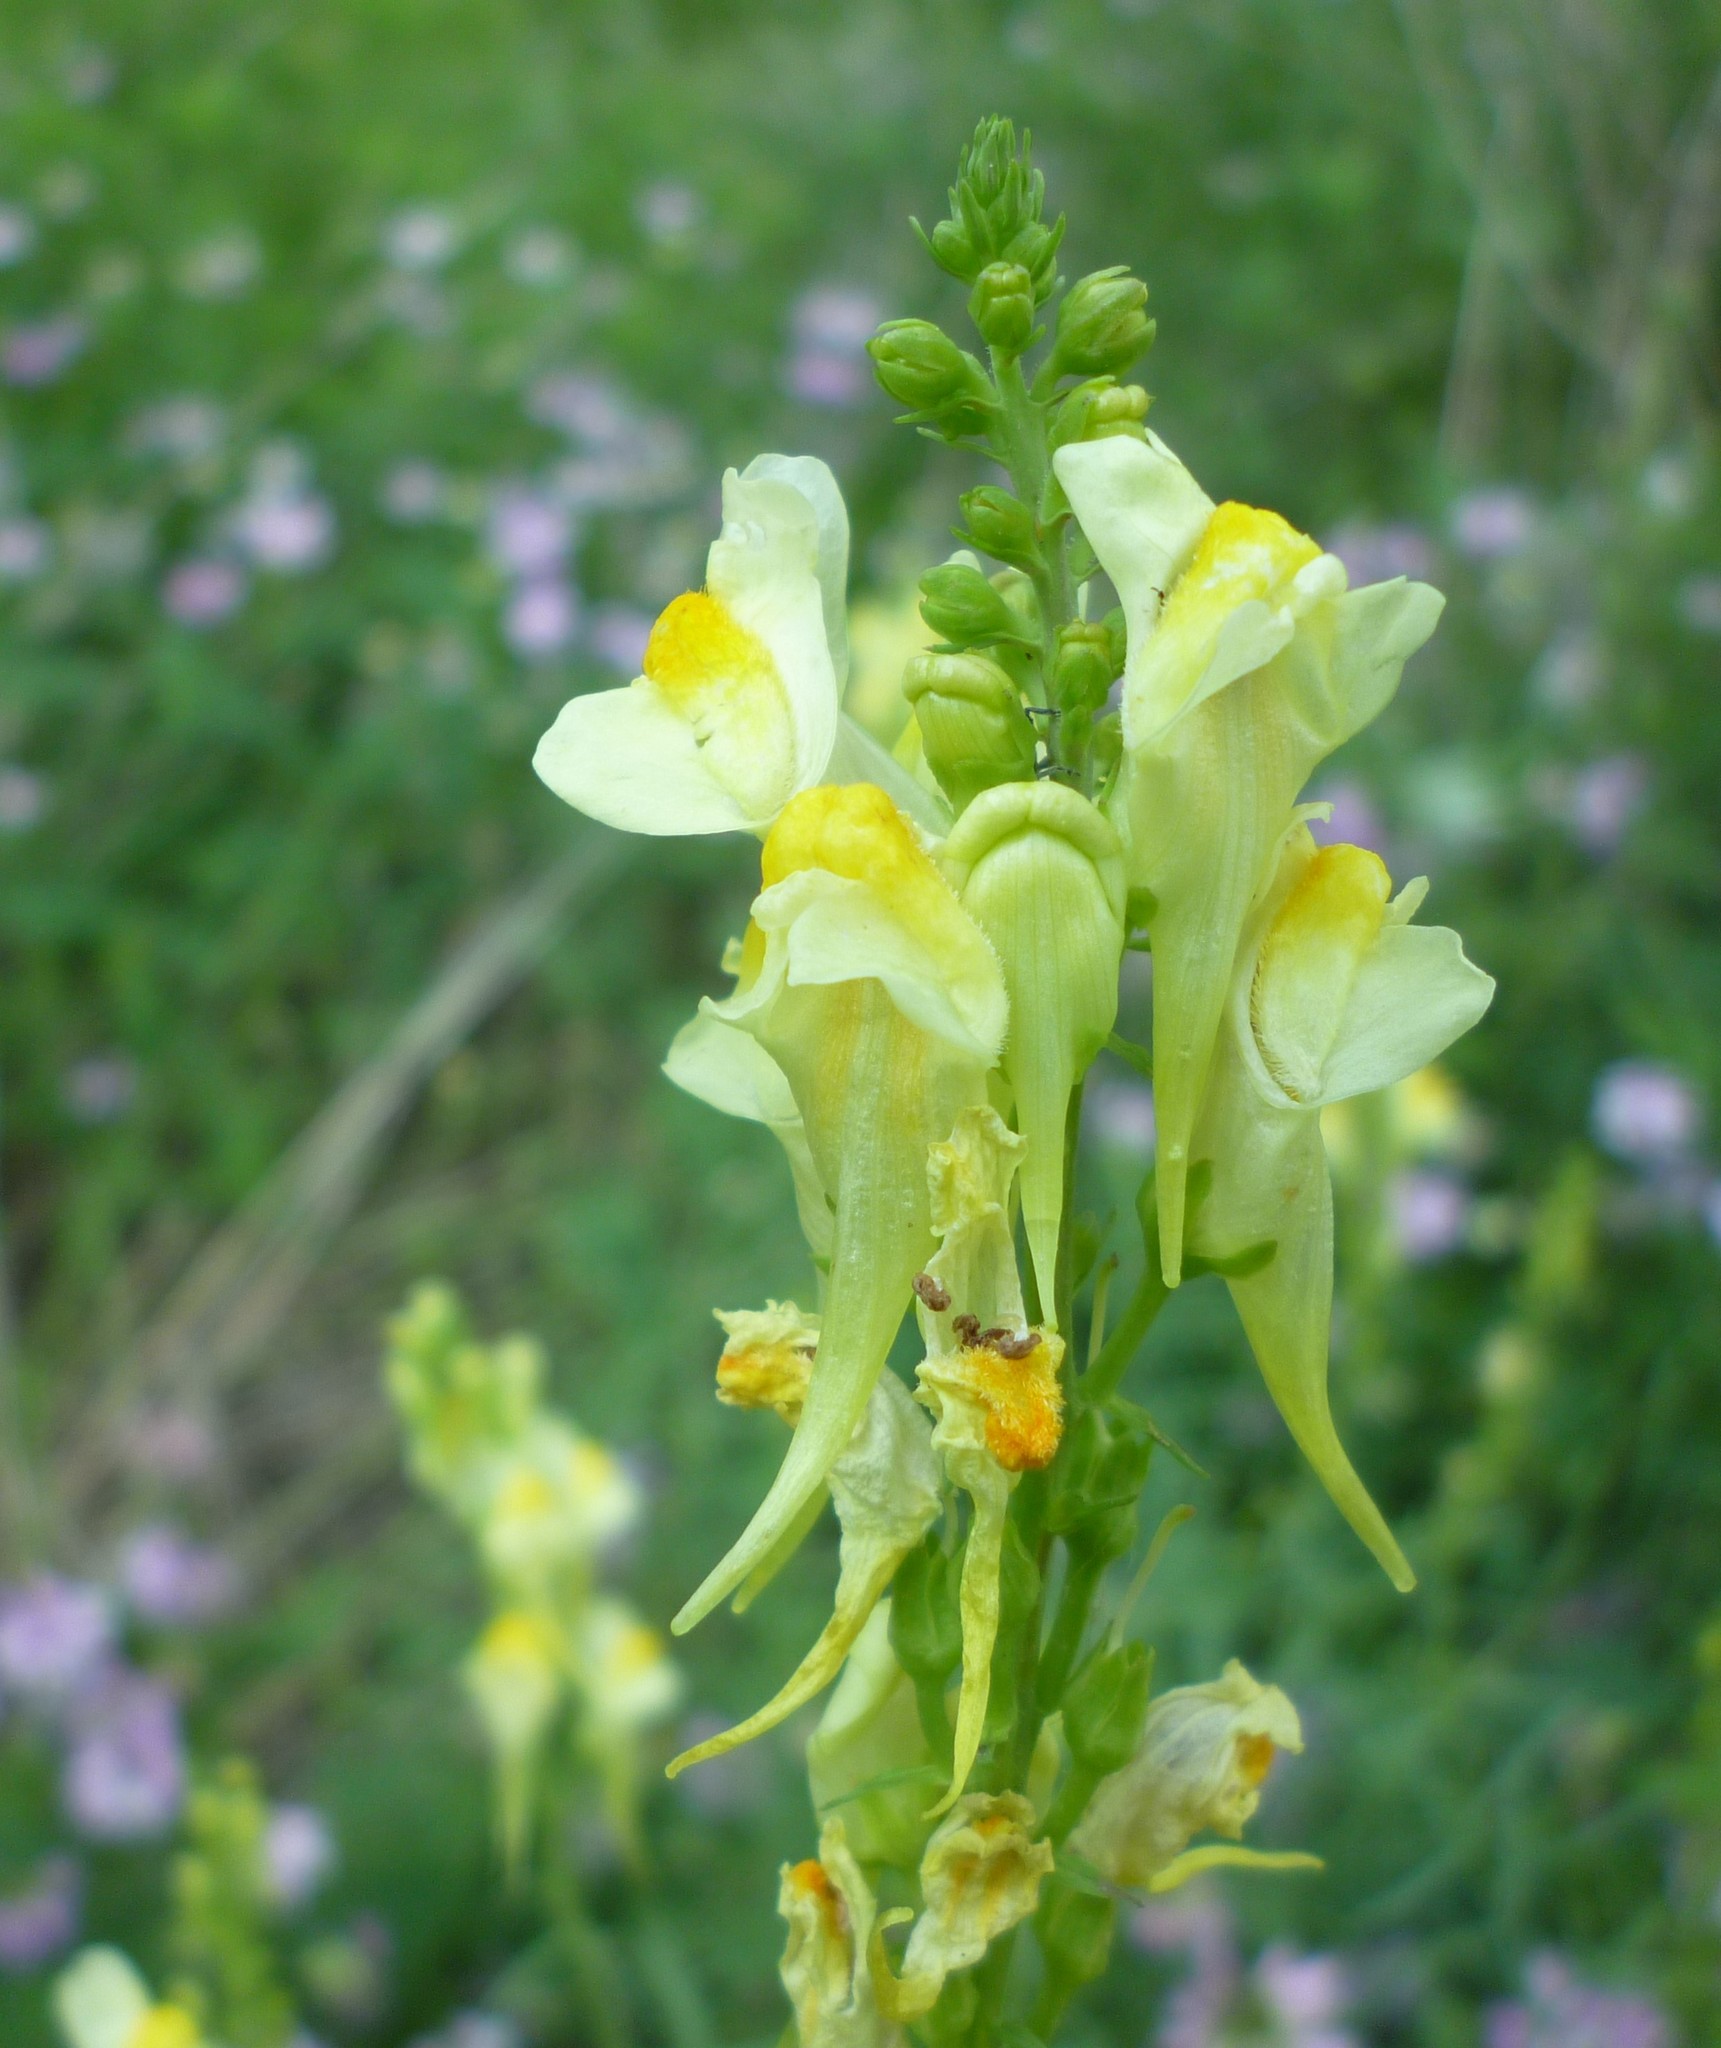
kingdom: Plantae
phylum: Tracheophyta
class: Magnoliopsida
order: Lamiales
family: Plantaginaceae
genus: Linaria
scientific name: Linaria vulgaris
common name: Butter and eggs
